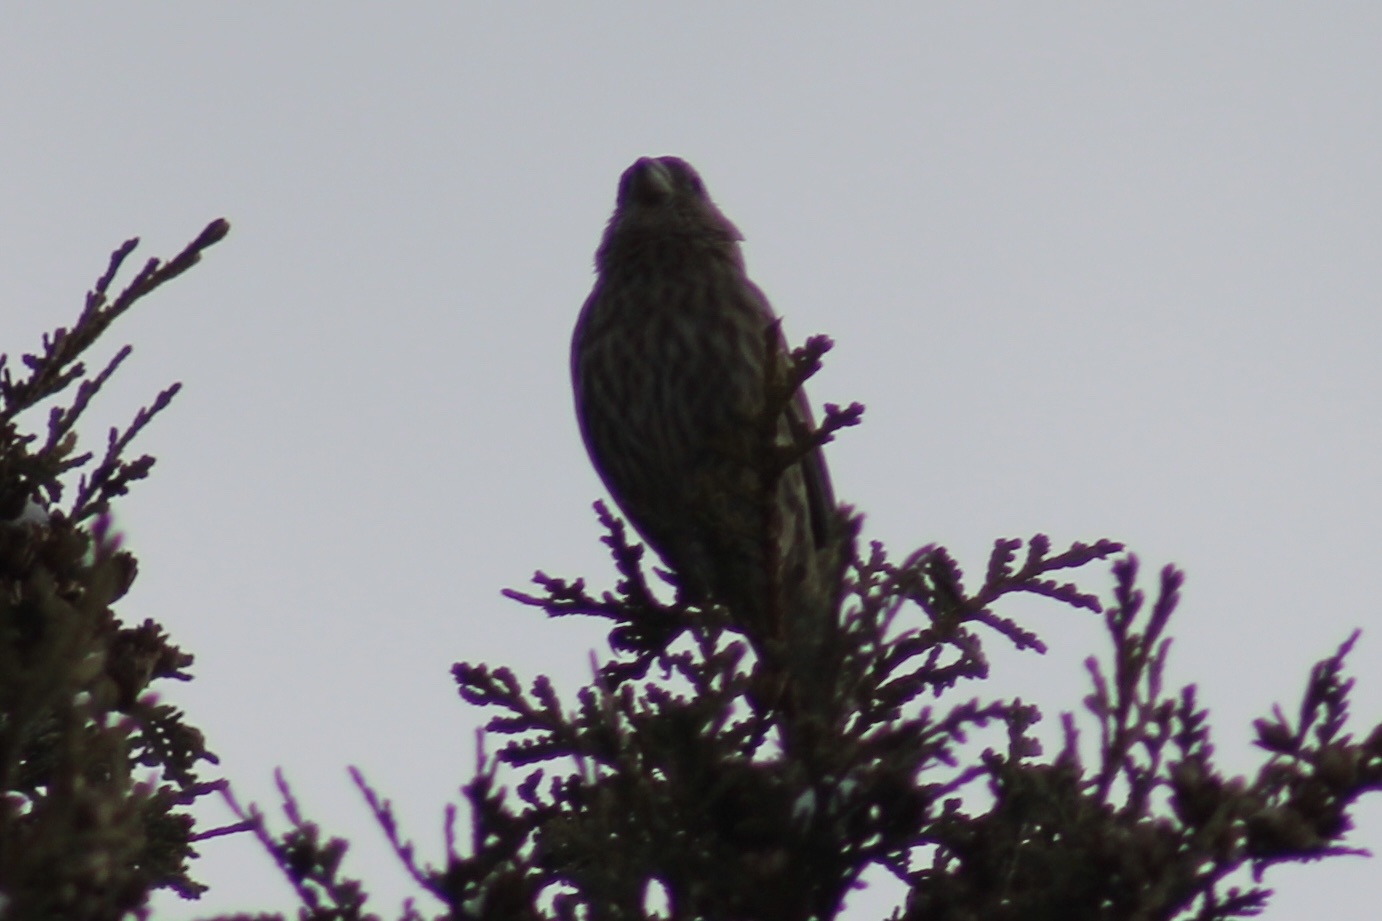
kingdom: Animalia
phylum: Chordata
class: Aves
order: Passeriformes
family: Fringillidae
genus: Haemorhous
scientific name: Haemorhous mexicanus
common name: House finch
